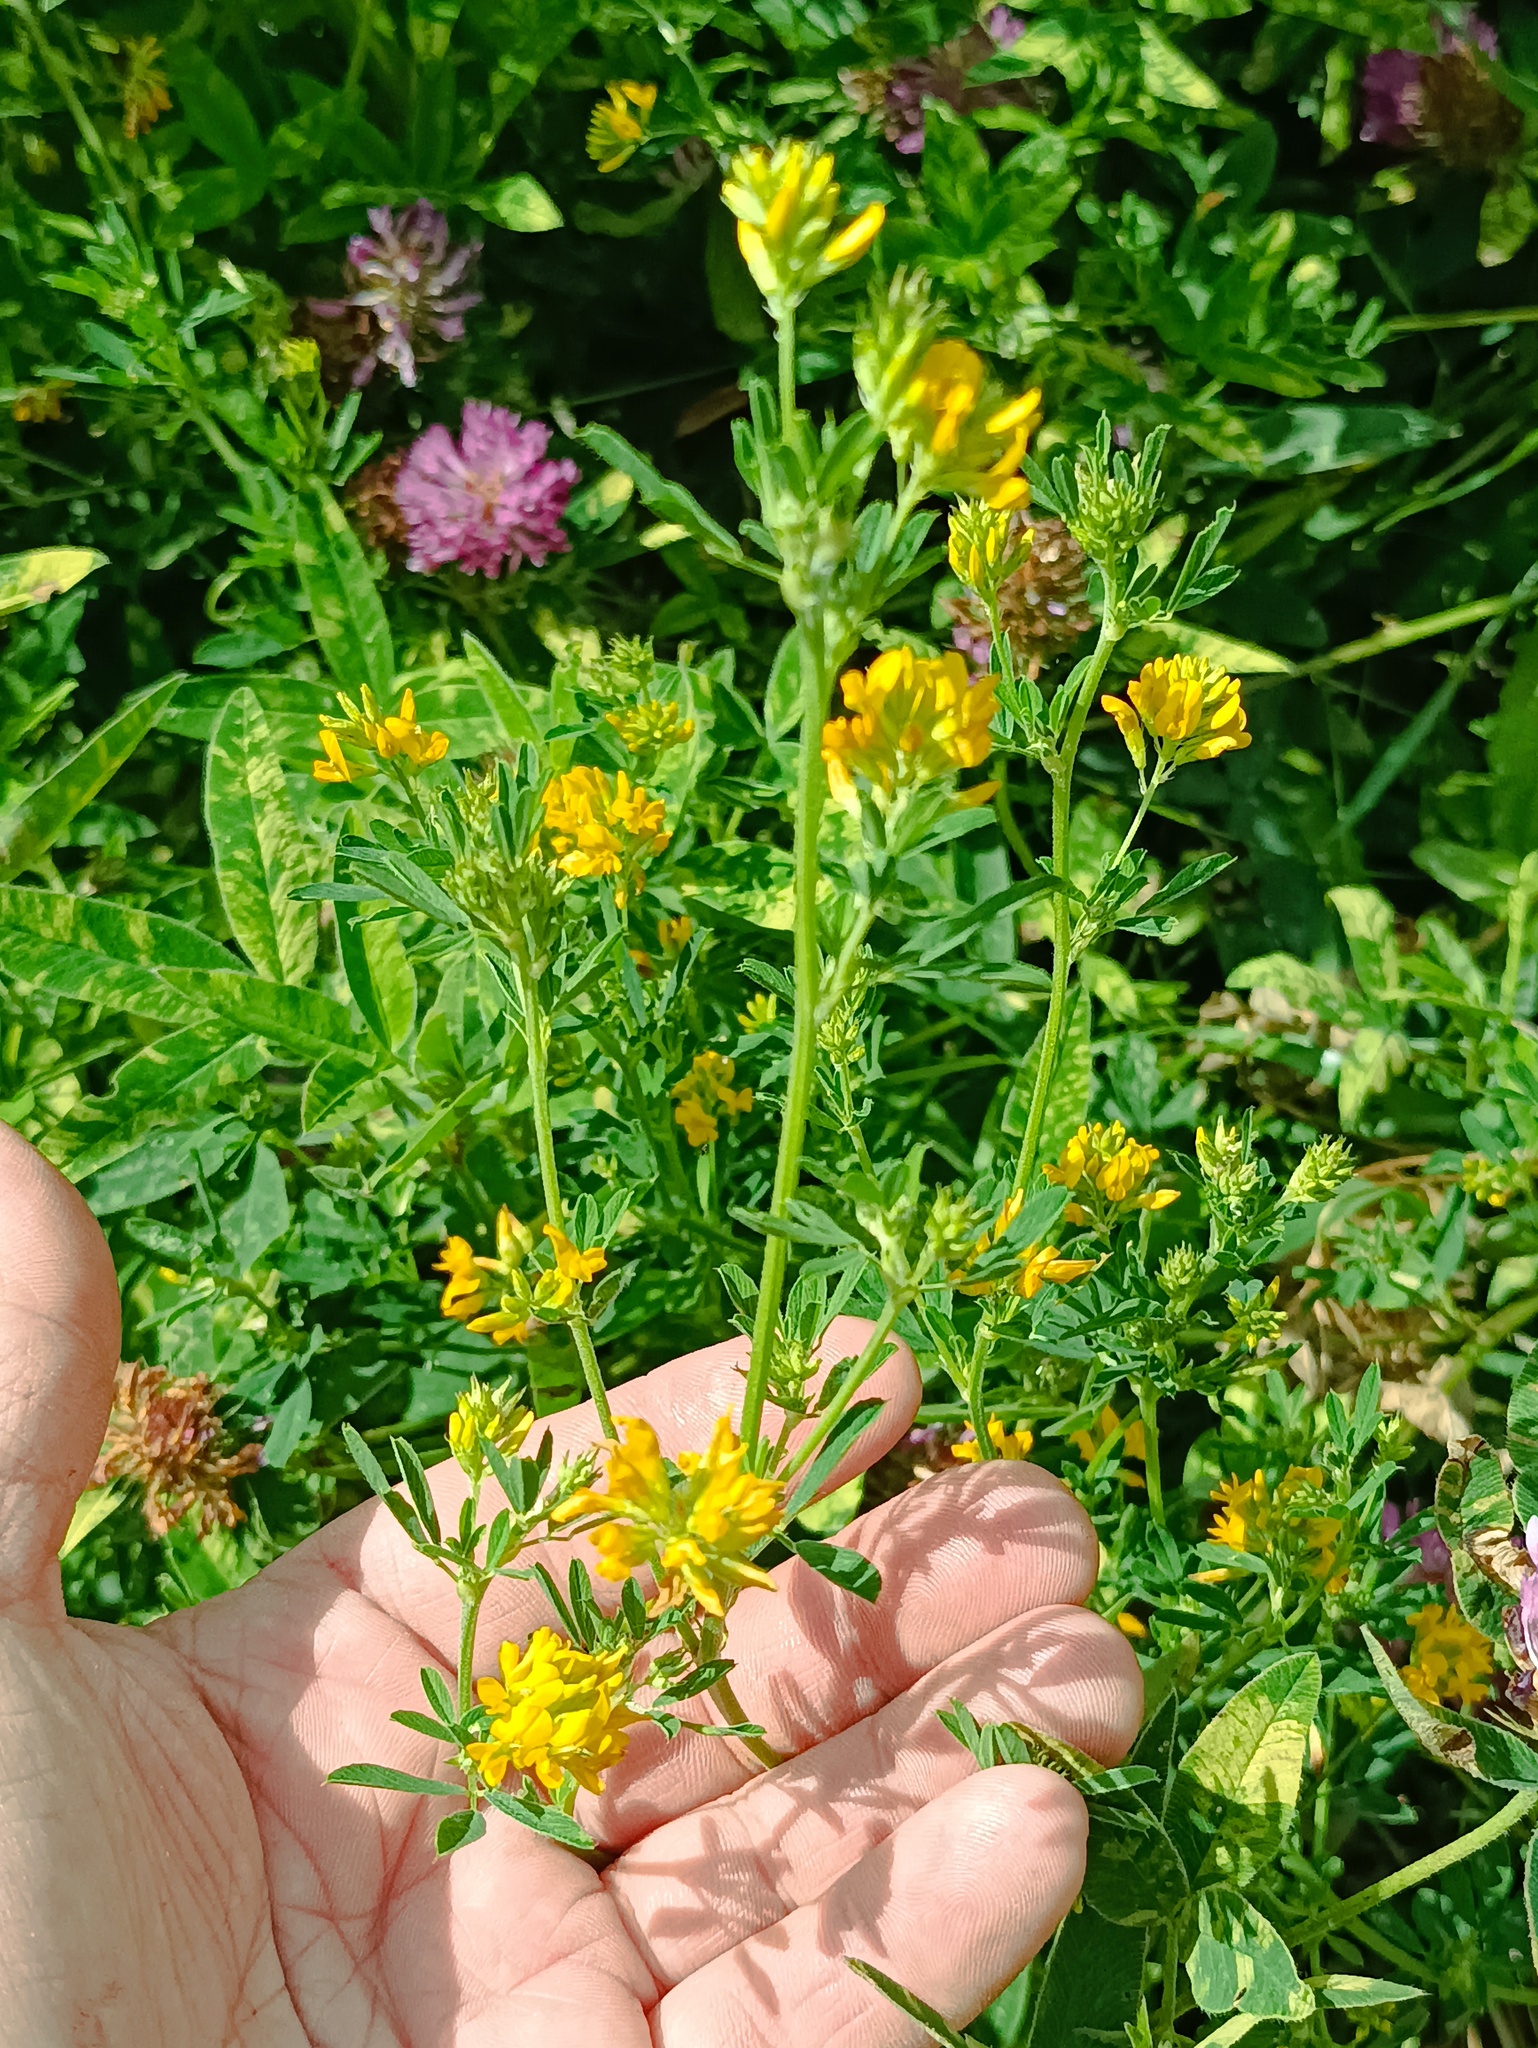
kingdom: Plantae
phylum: Tracheophyta
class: Magnoliopsida
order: Fabales
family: Fabaceae
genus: Medicago
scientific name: Medicago falcata
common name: Sickle medick
